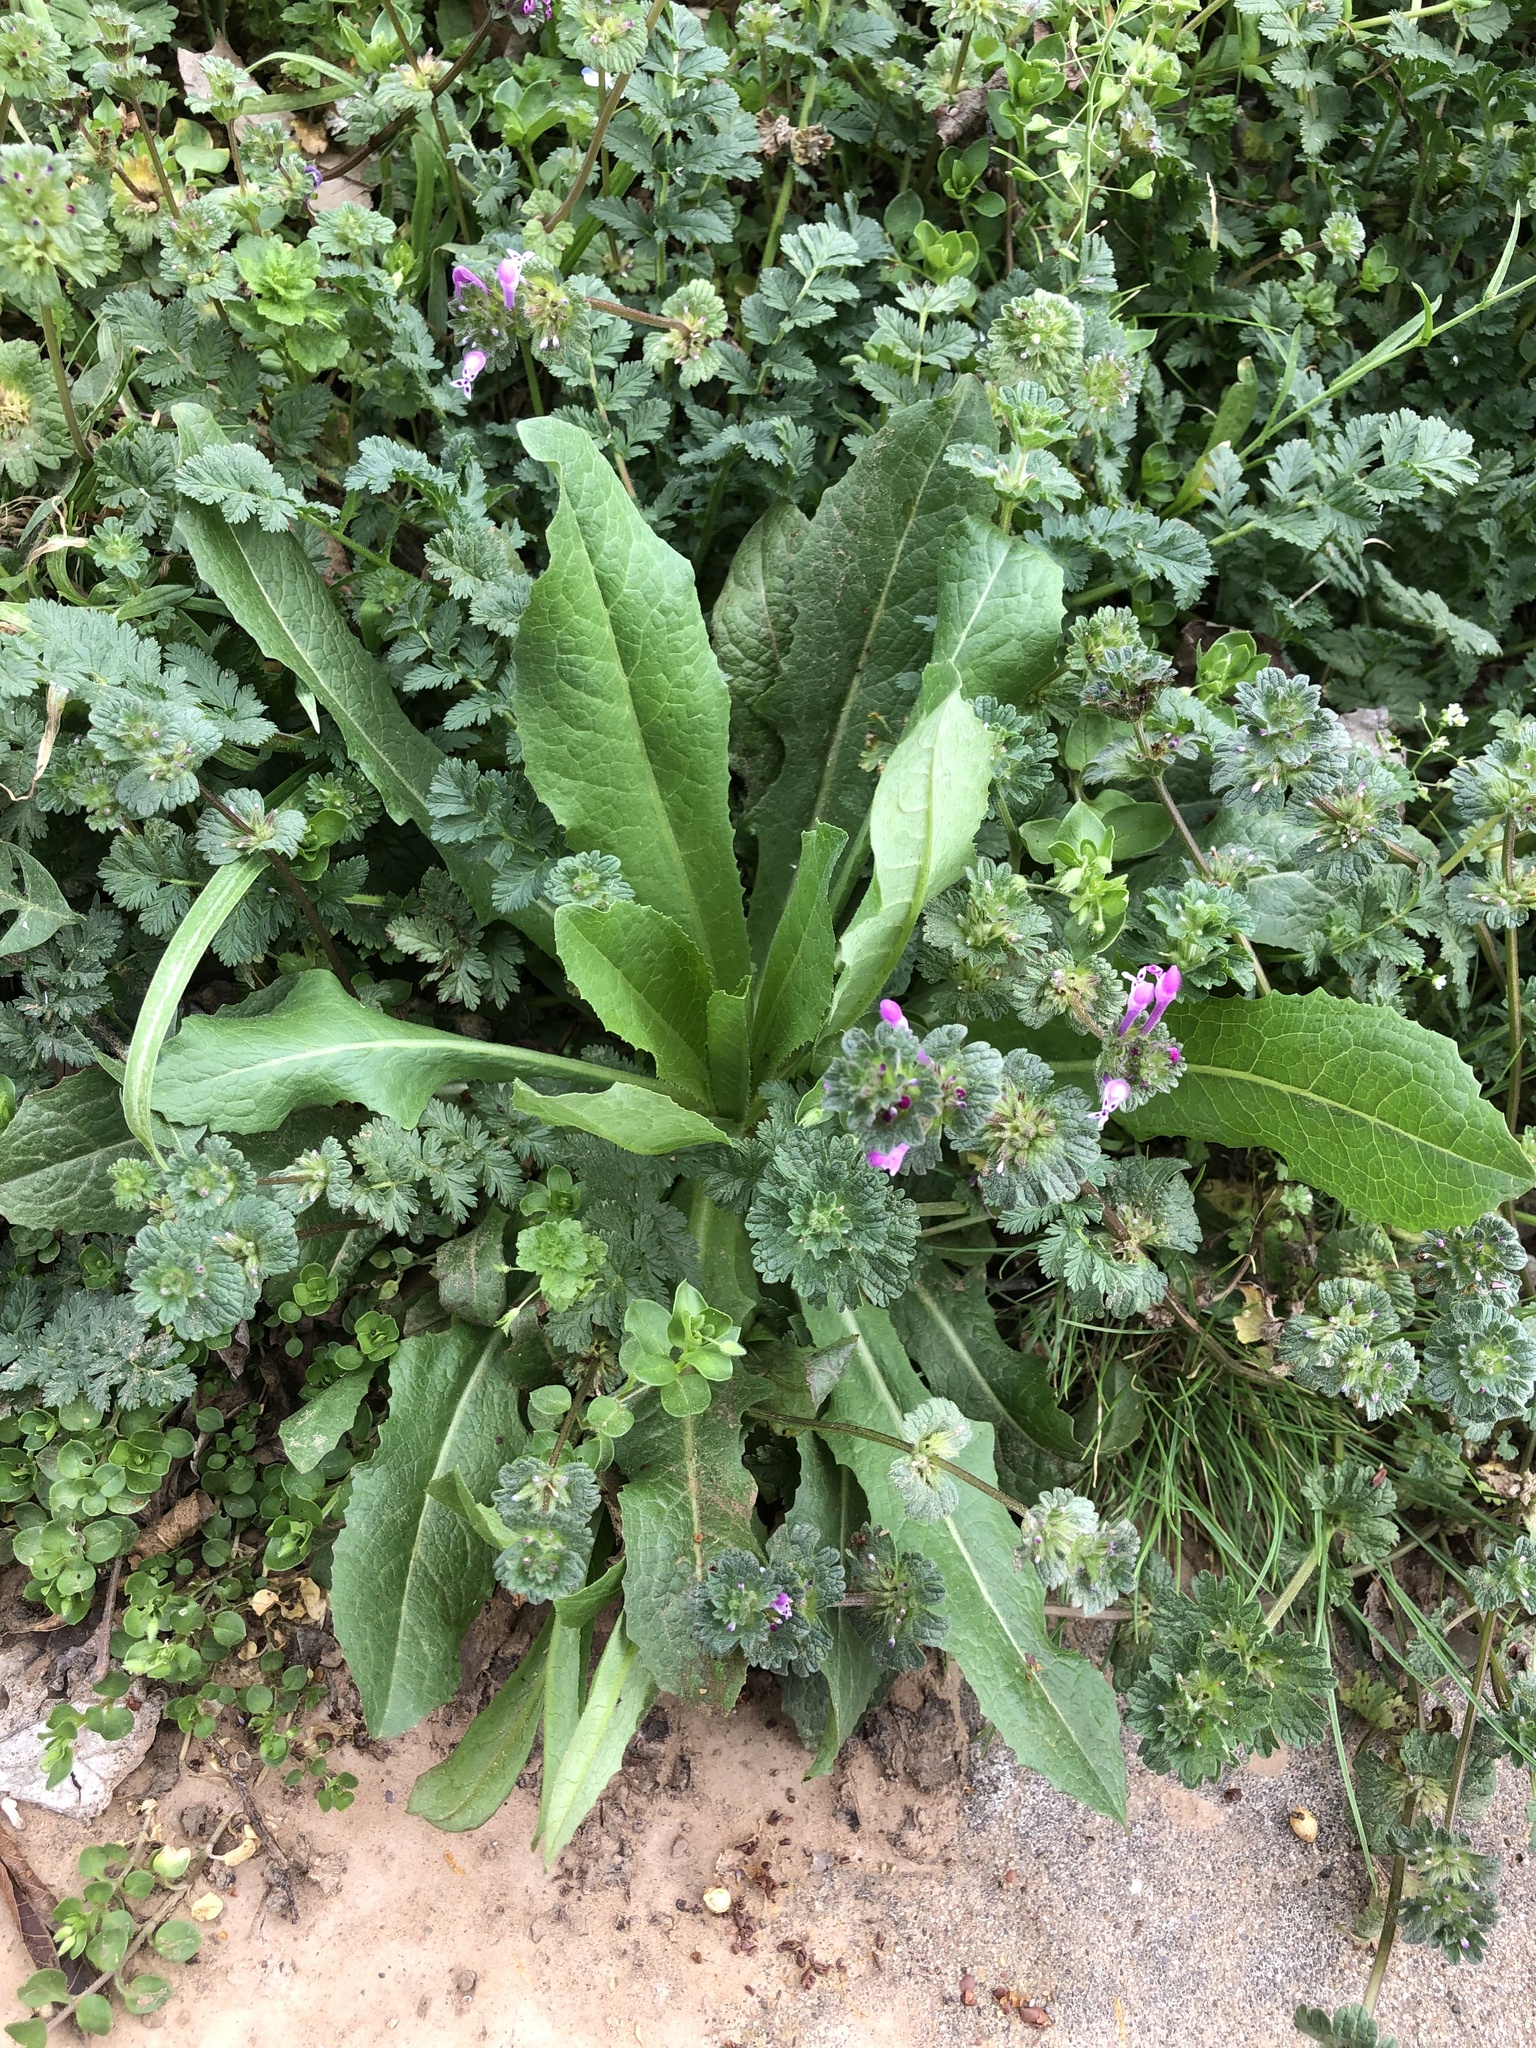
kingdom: Plantae
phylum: Tracheophyta
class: Magnoliopsida
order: Asterales
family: Asteraceae
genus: Lactuca
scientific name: Lactuca serriola
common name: Prickly lettuce
